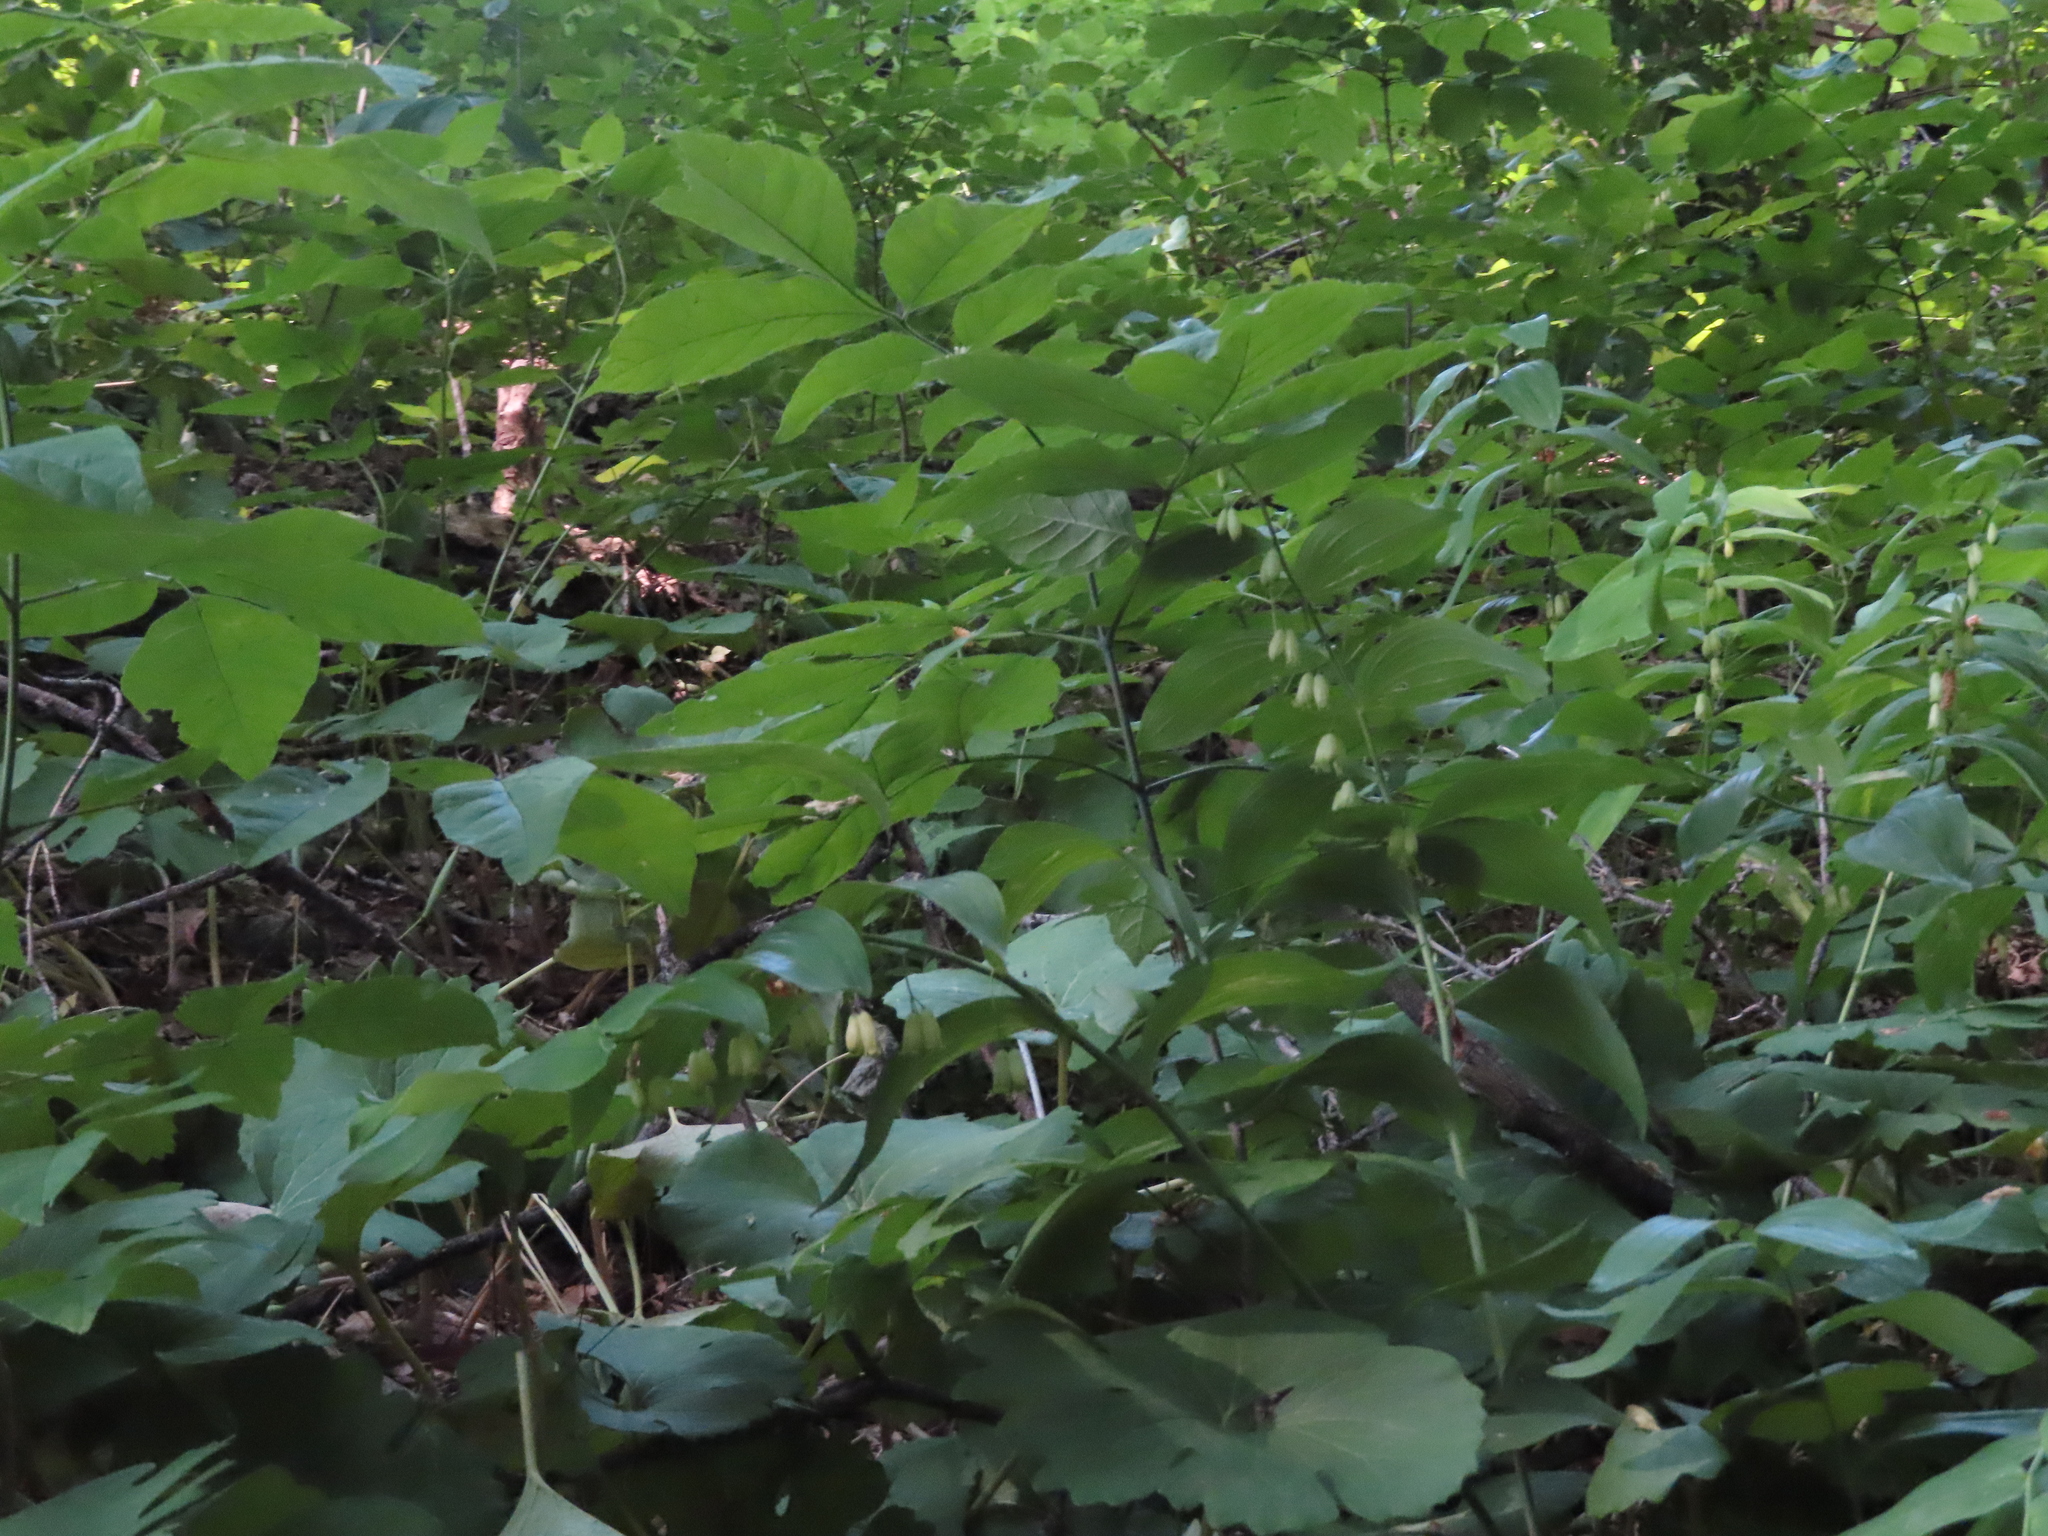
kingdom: Plantae
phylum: Tracheophyta
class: Liliopsida
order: Asparagales
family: Asparagaceae
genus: Polygonatum
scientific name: Polygonatum biflorum
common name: American solomon's-seal
